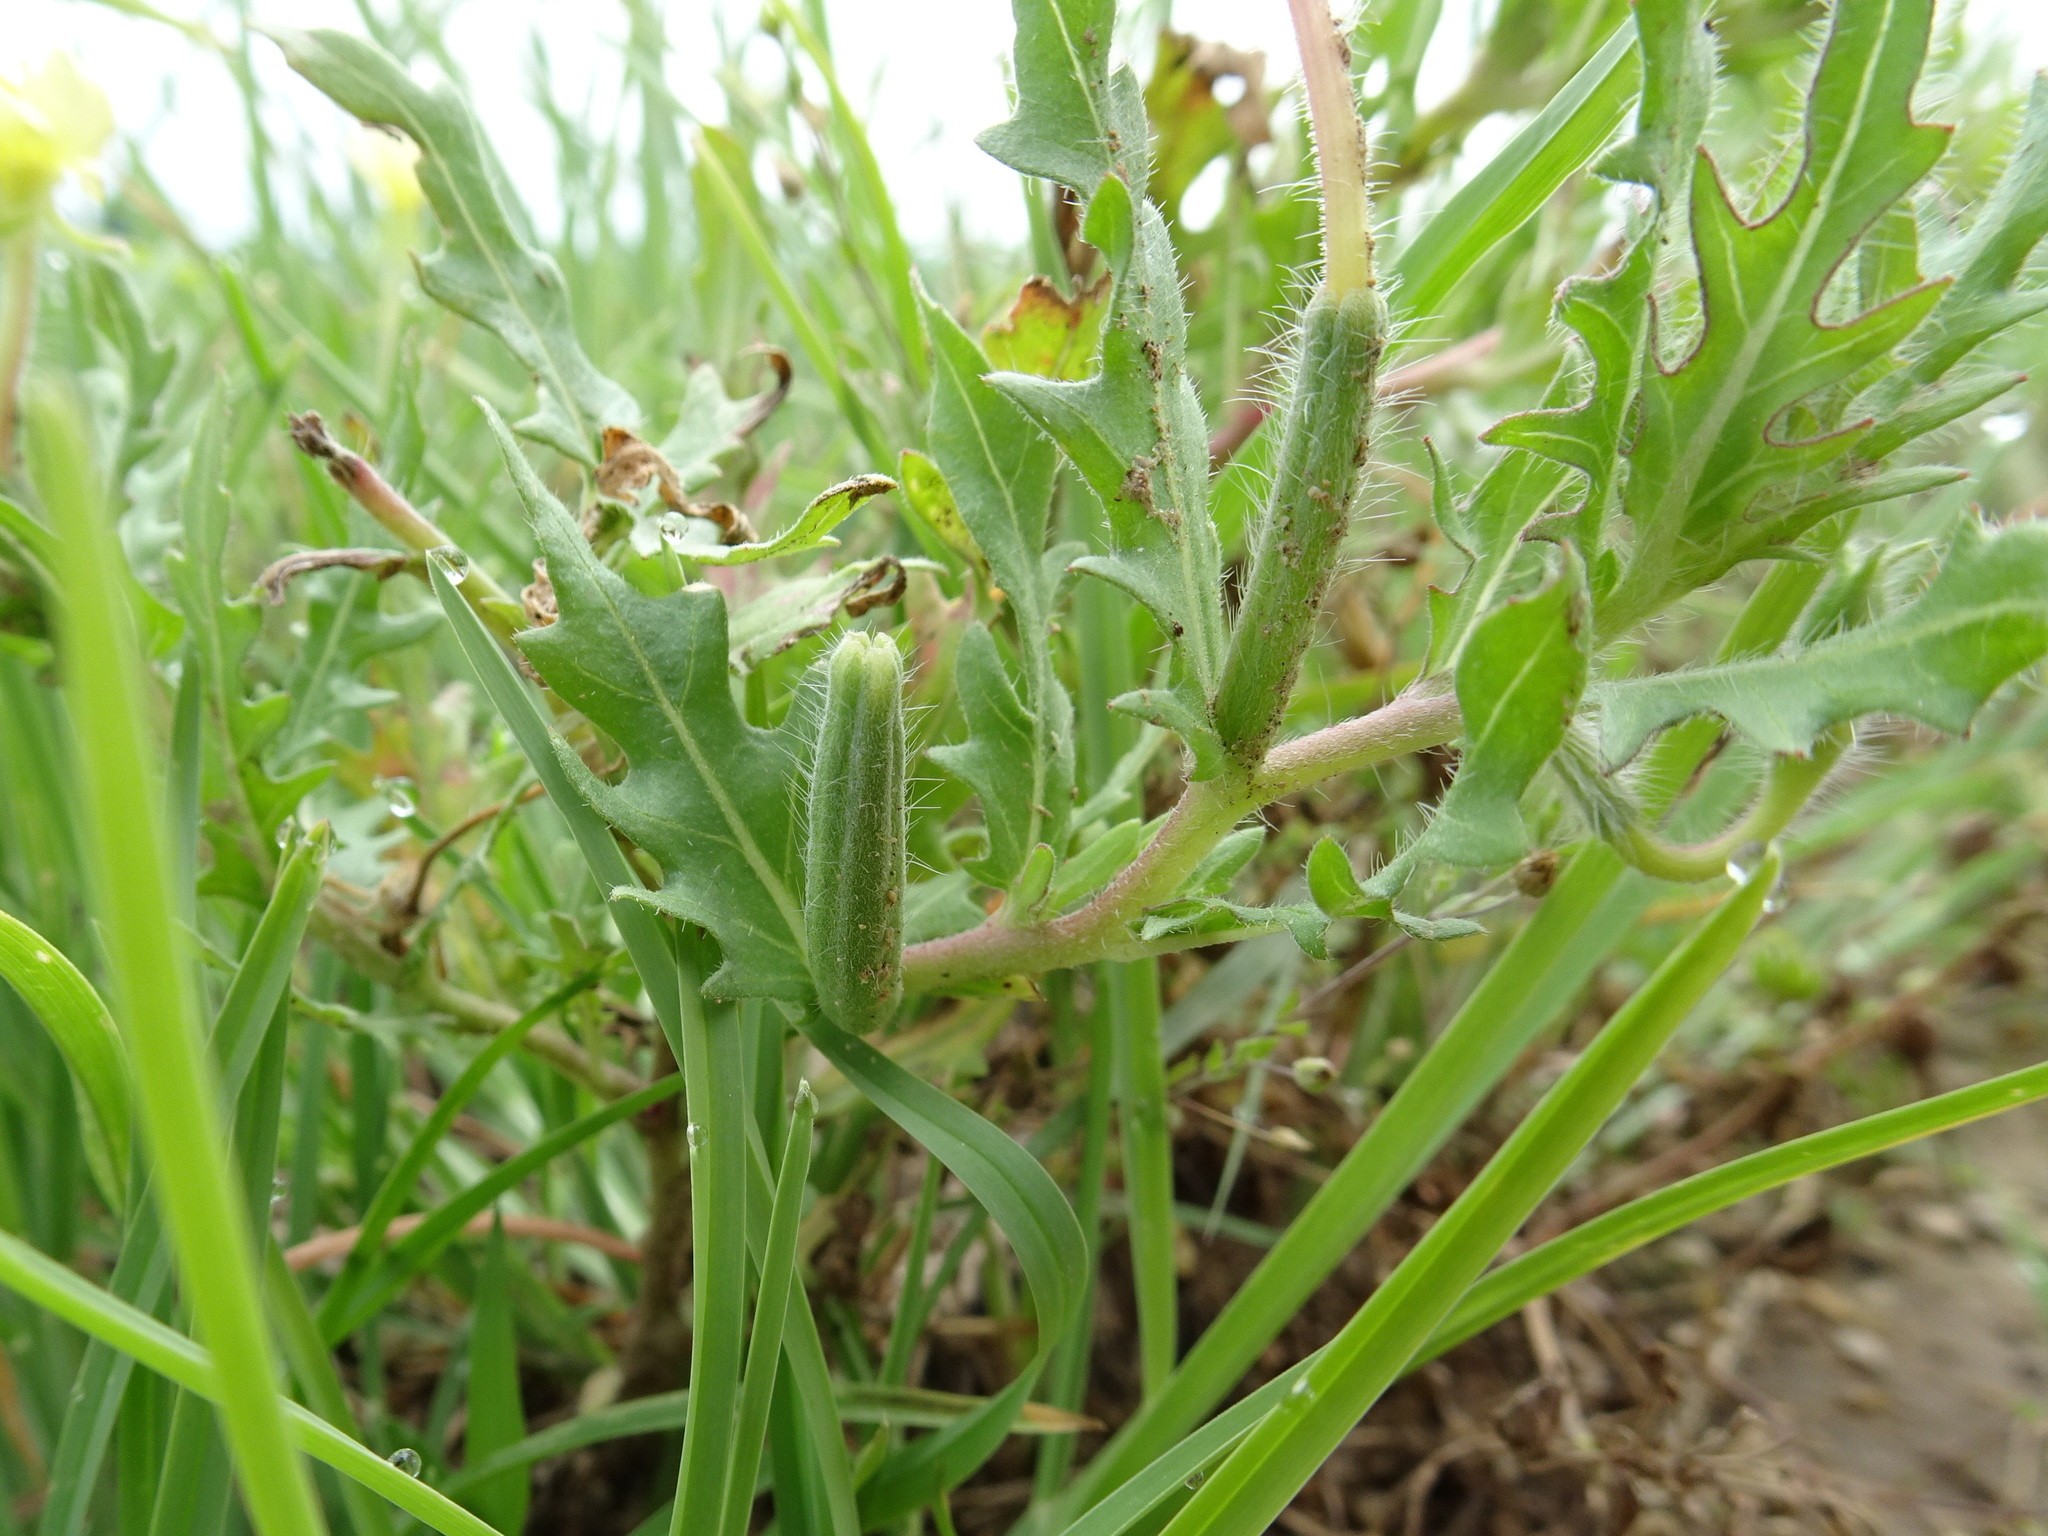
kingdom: Plantae
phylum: Tracheophyta
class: Magnoliopsida
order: Myrtales
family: Onagraceae
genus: Oenothera
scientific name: Oenothera laciniata
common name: Cut-leaved evening-primrose
